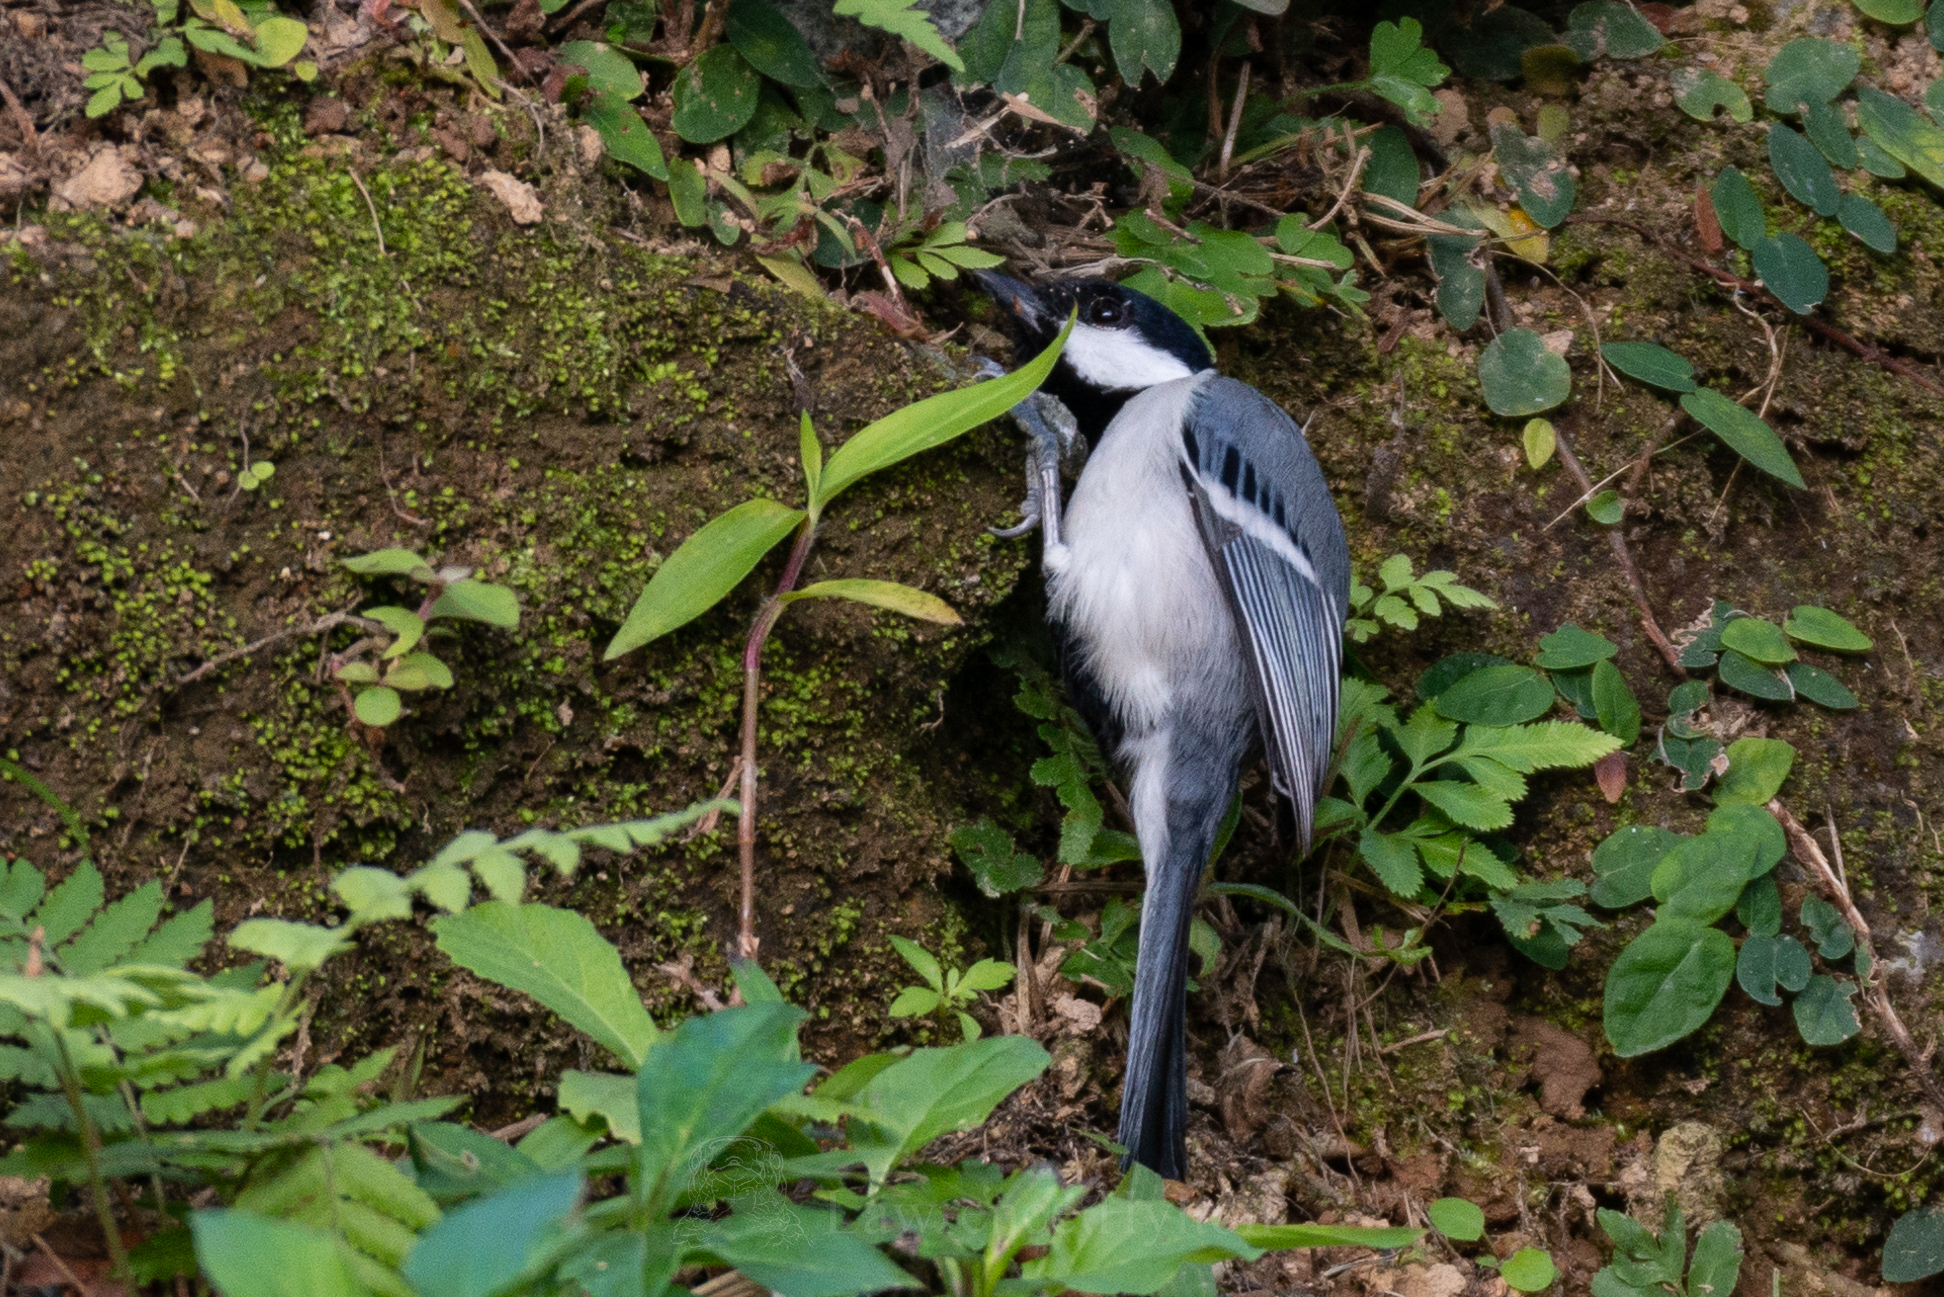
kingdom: Animalia
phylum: Chordata
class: Aves
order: Passeriformes
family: Paridae
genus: Parus
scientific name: Parus minor
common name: Japanese tit
